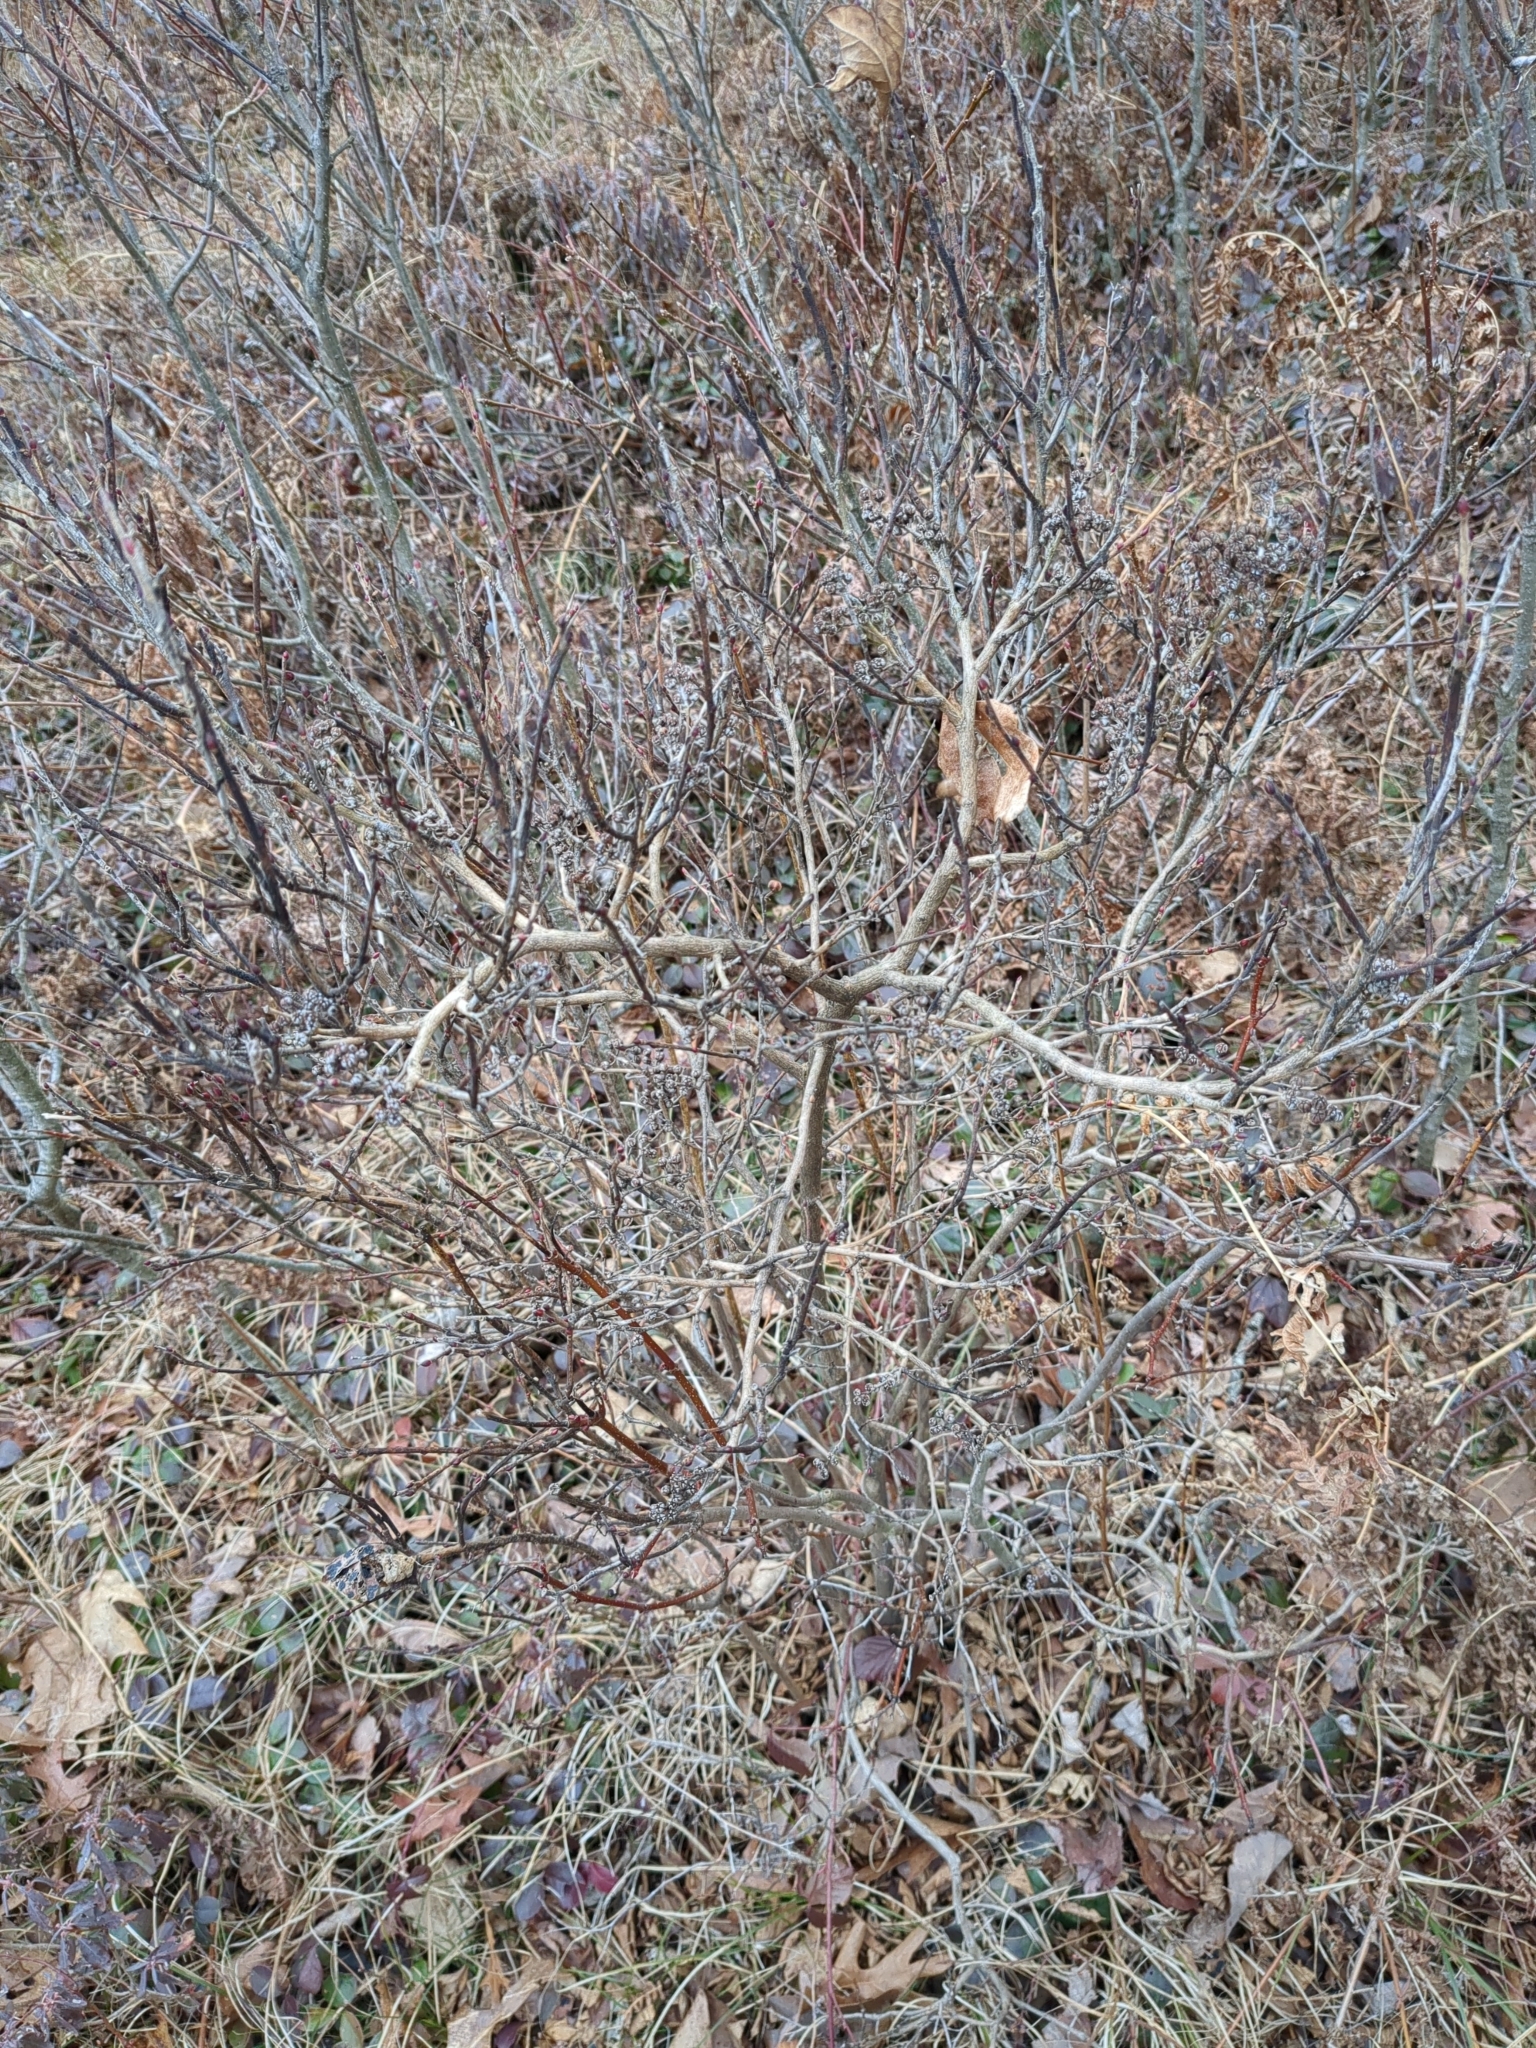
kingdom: Plantae
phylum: Tracheophyta
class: Magnoliopsida
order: Ericales
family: Ericaceae
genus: Lyonia
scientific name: Lyonia ligustrina
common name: Maleberry
